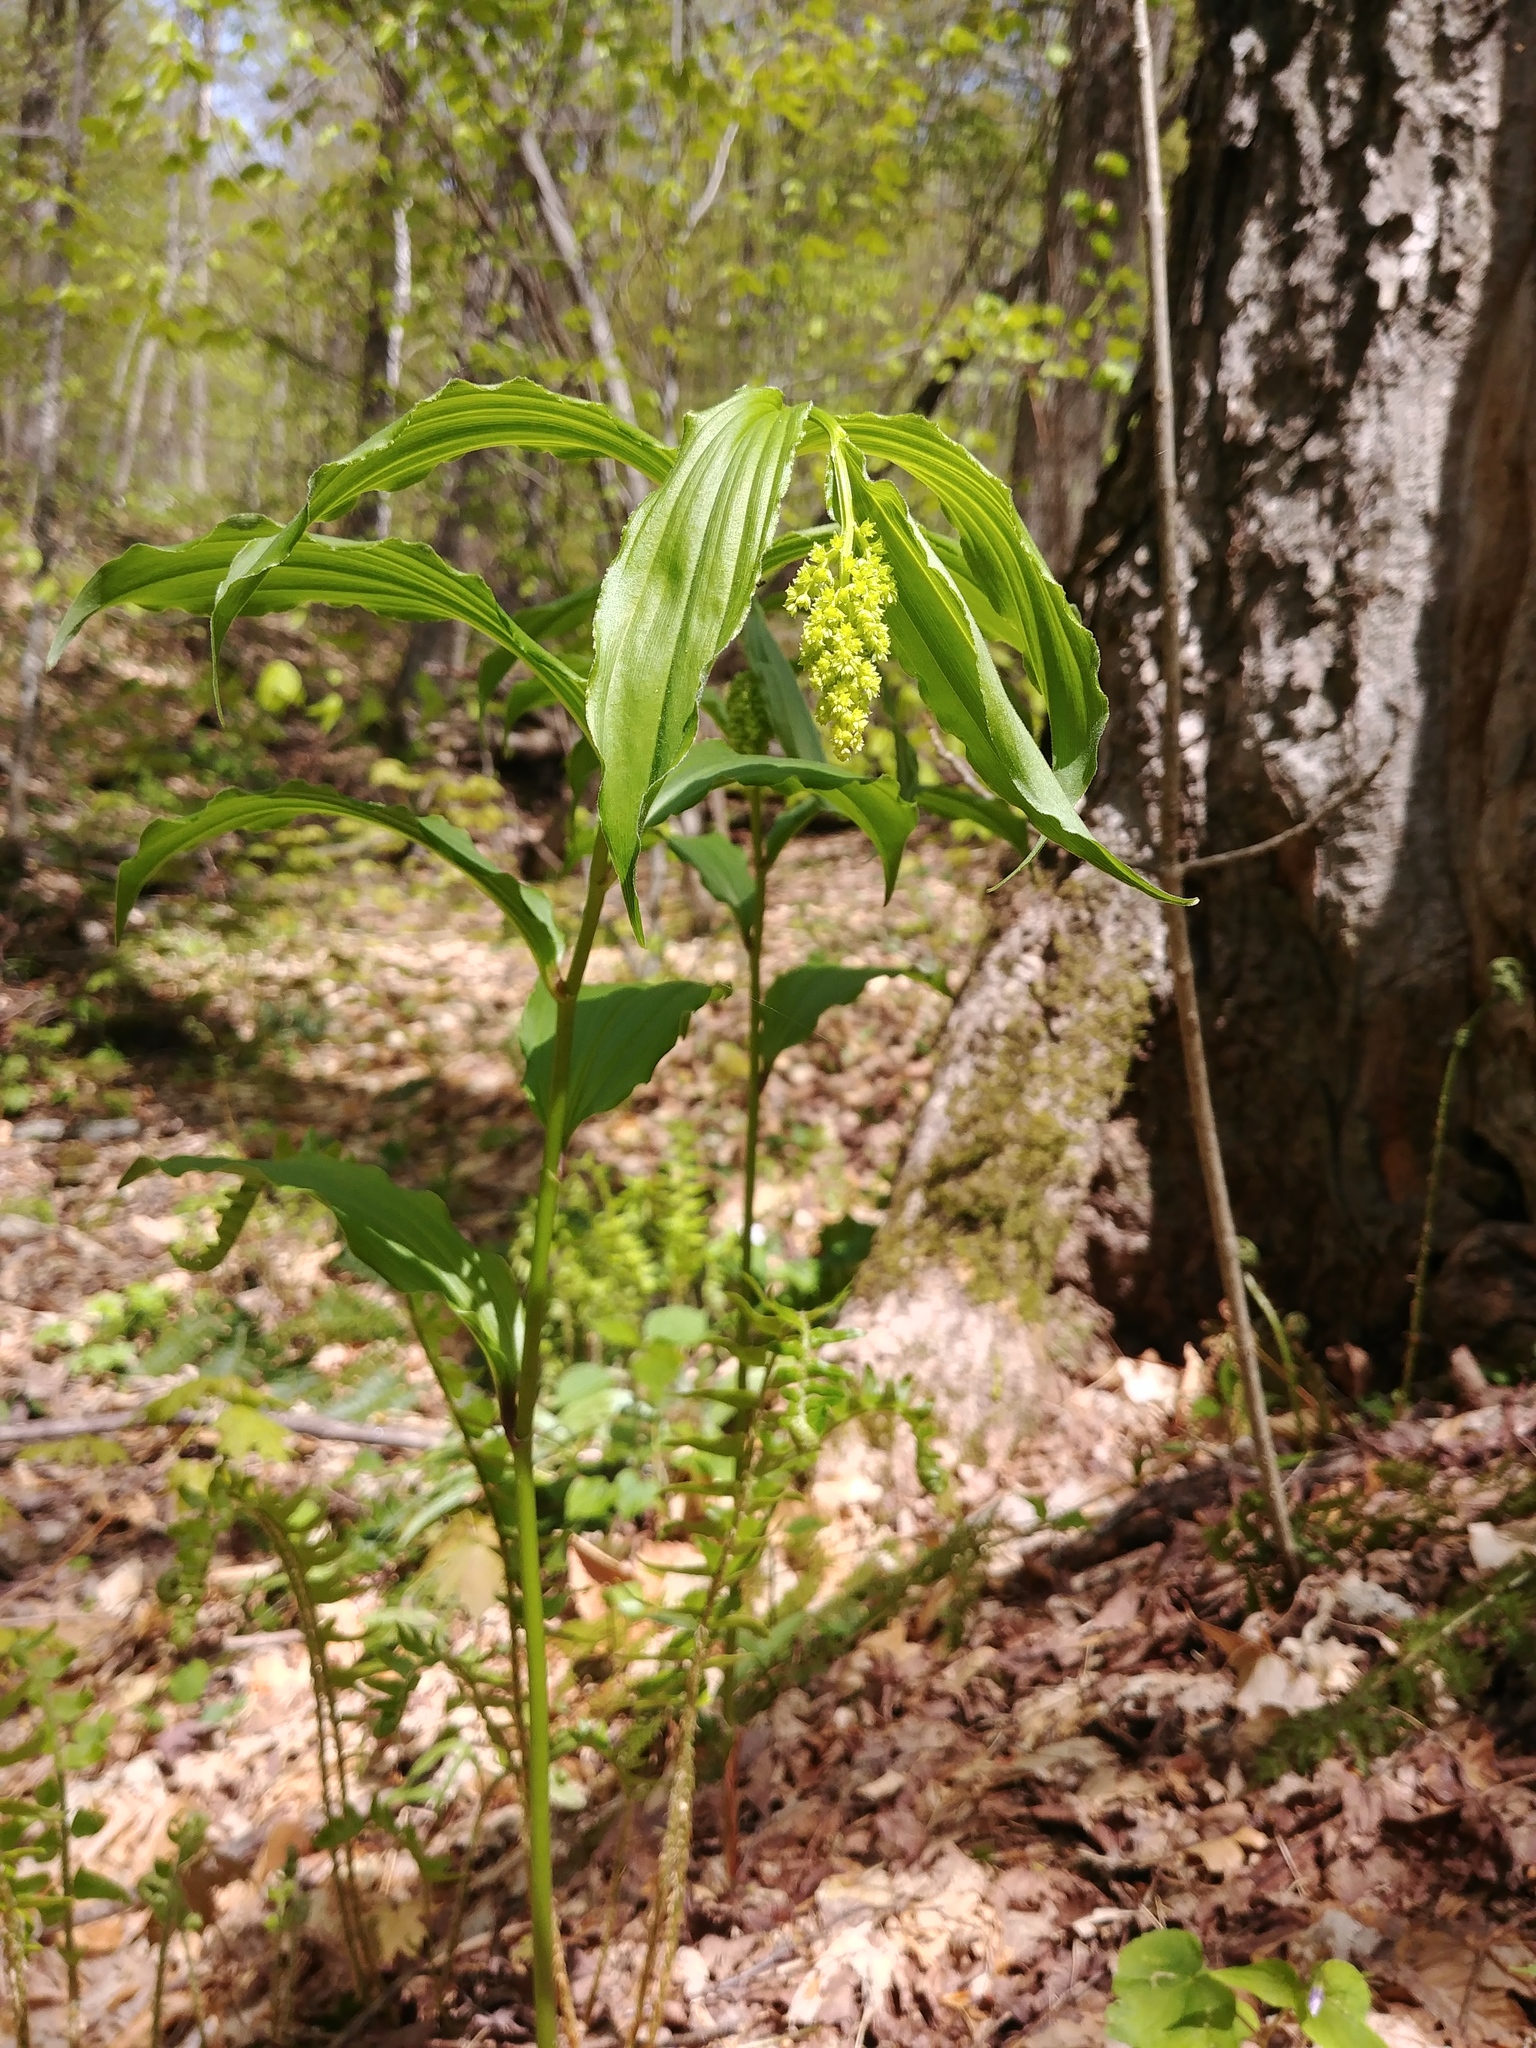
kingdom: Plantae
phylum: Tracheophyta
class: Liliopsida
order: Asparagales
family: Asparagaceae
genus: Maianthemum
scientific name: Maianthemum racemosum
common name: False spikenard
